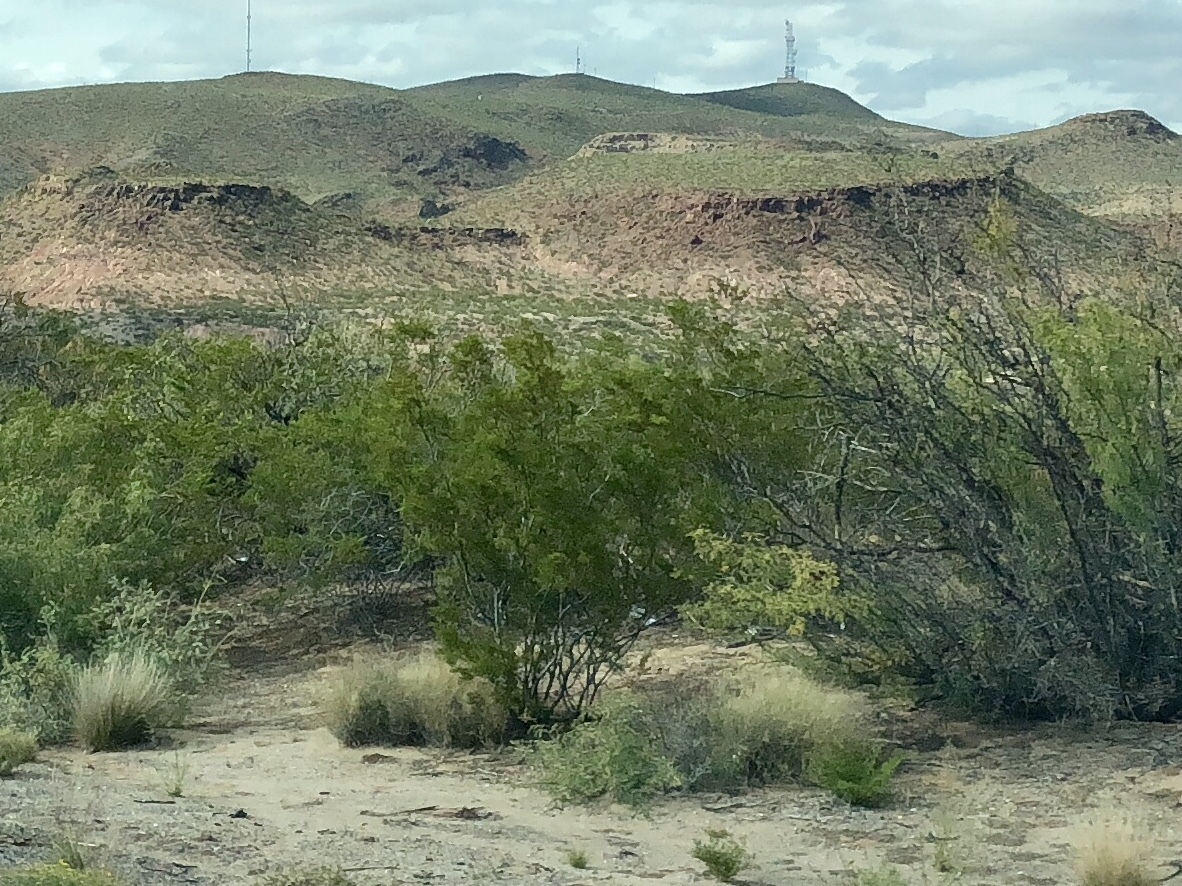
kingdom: Plantae
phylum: Tracheophyta
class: Magnoliopsida
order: Zygophyllales
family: Zygophyllaceae
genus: Larrea
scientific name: Larrea tridentata
